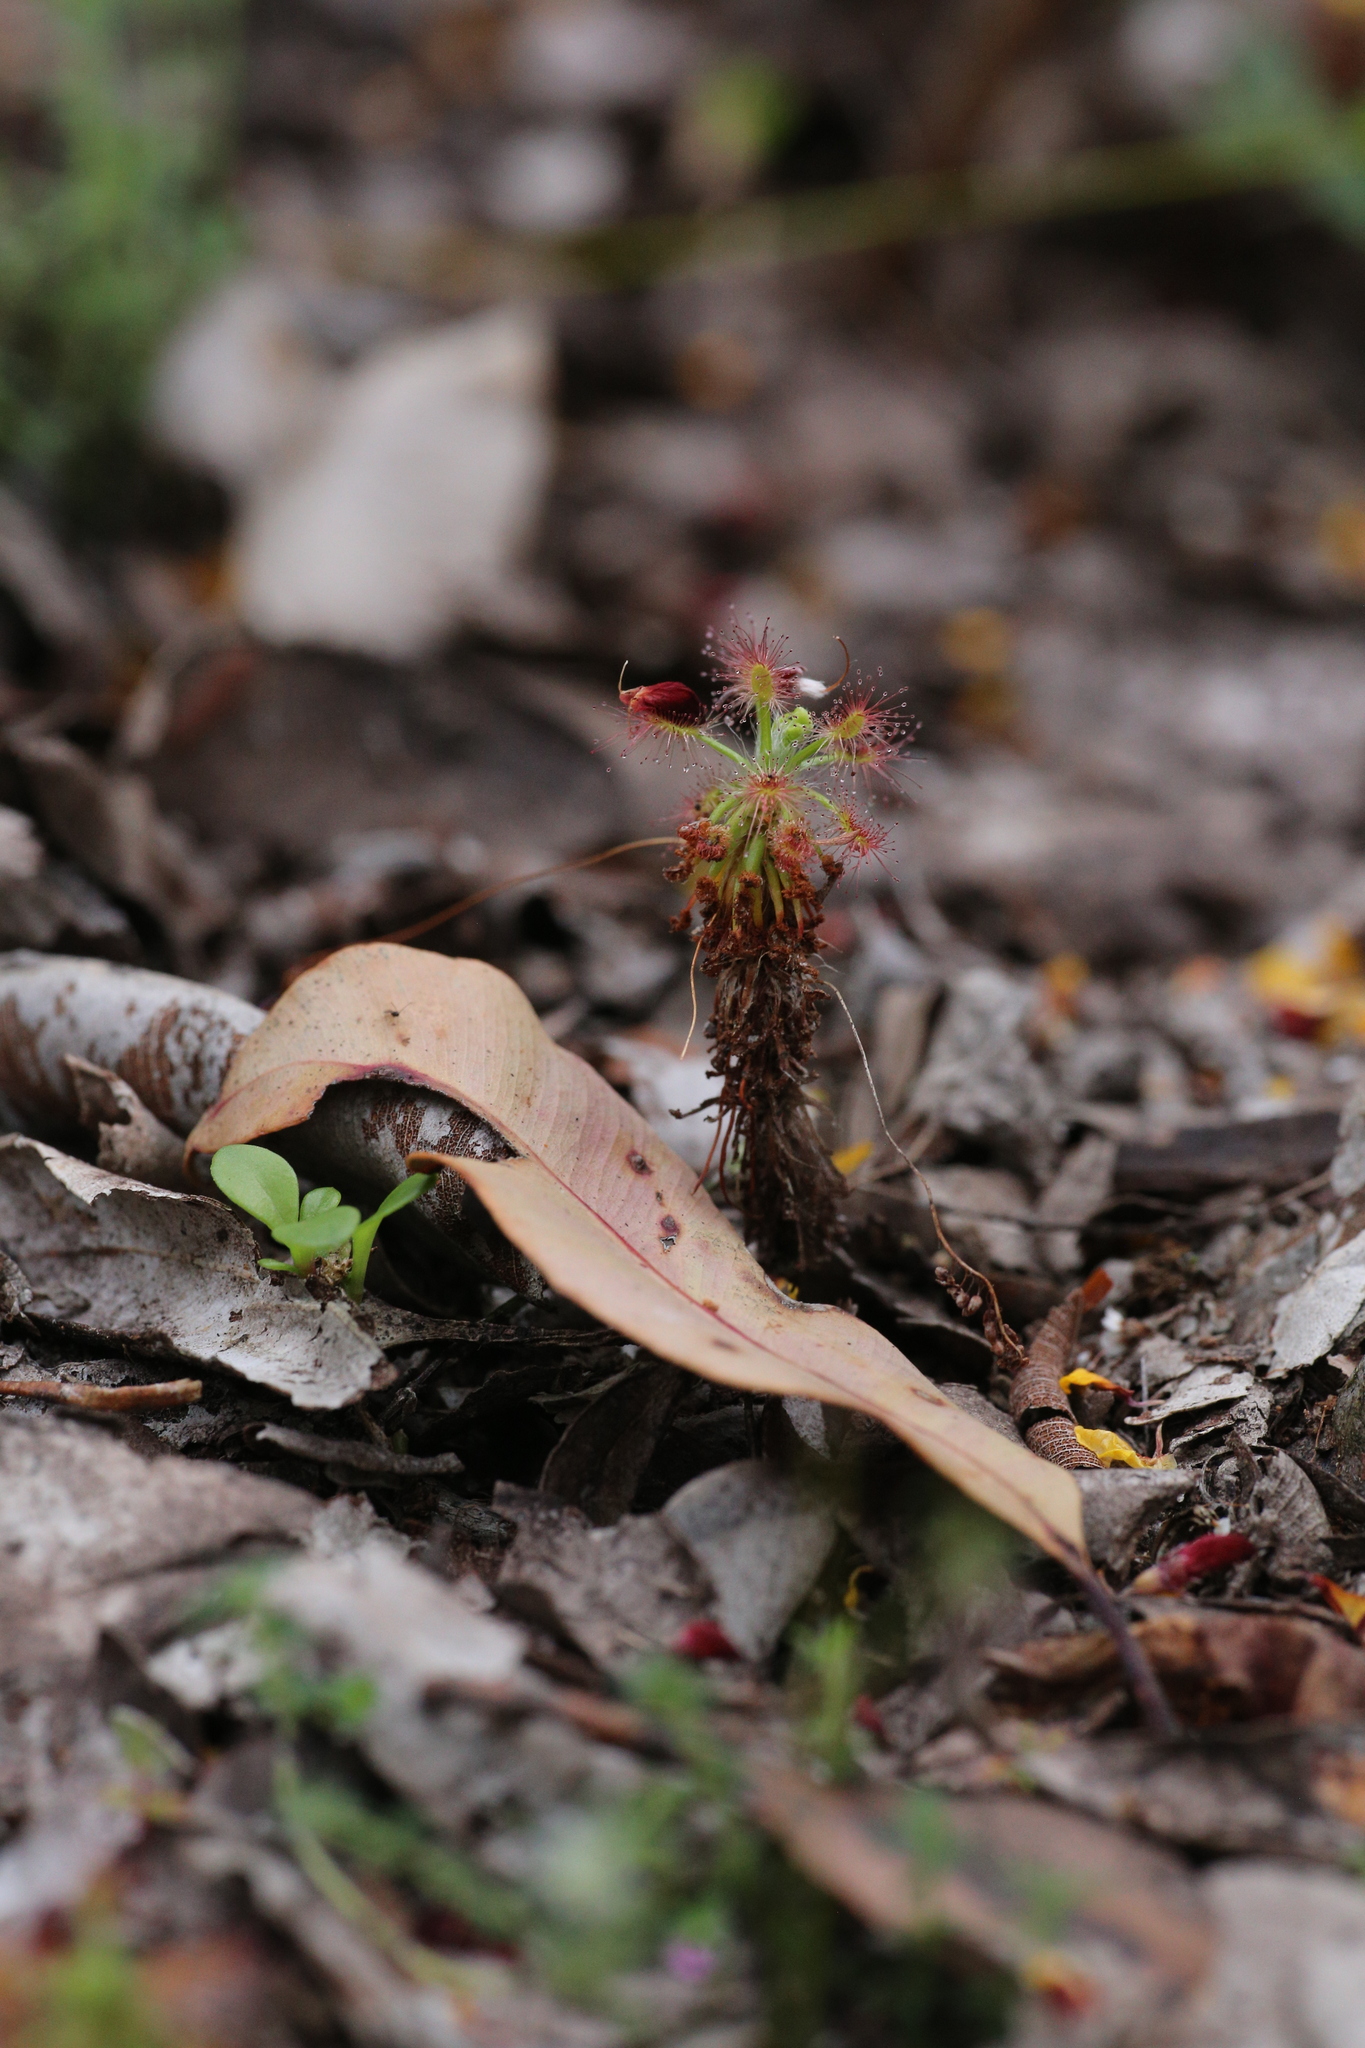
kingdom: Plantae
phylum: Tracheophyta
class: Magnoliopsida
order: Caryophyllales
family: Droseraceae
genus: Drosera
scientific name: Drosera paleacea
